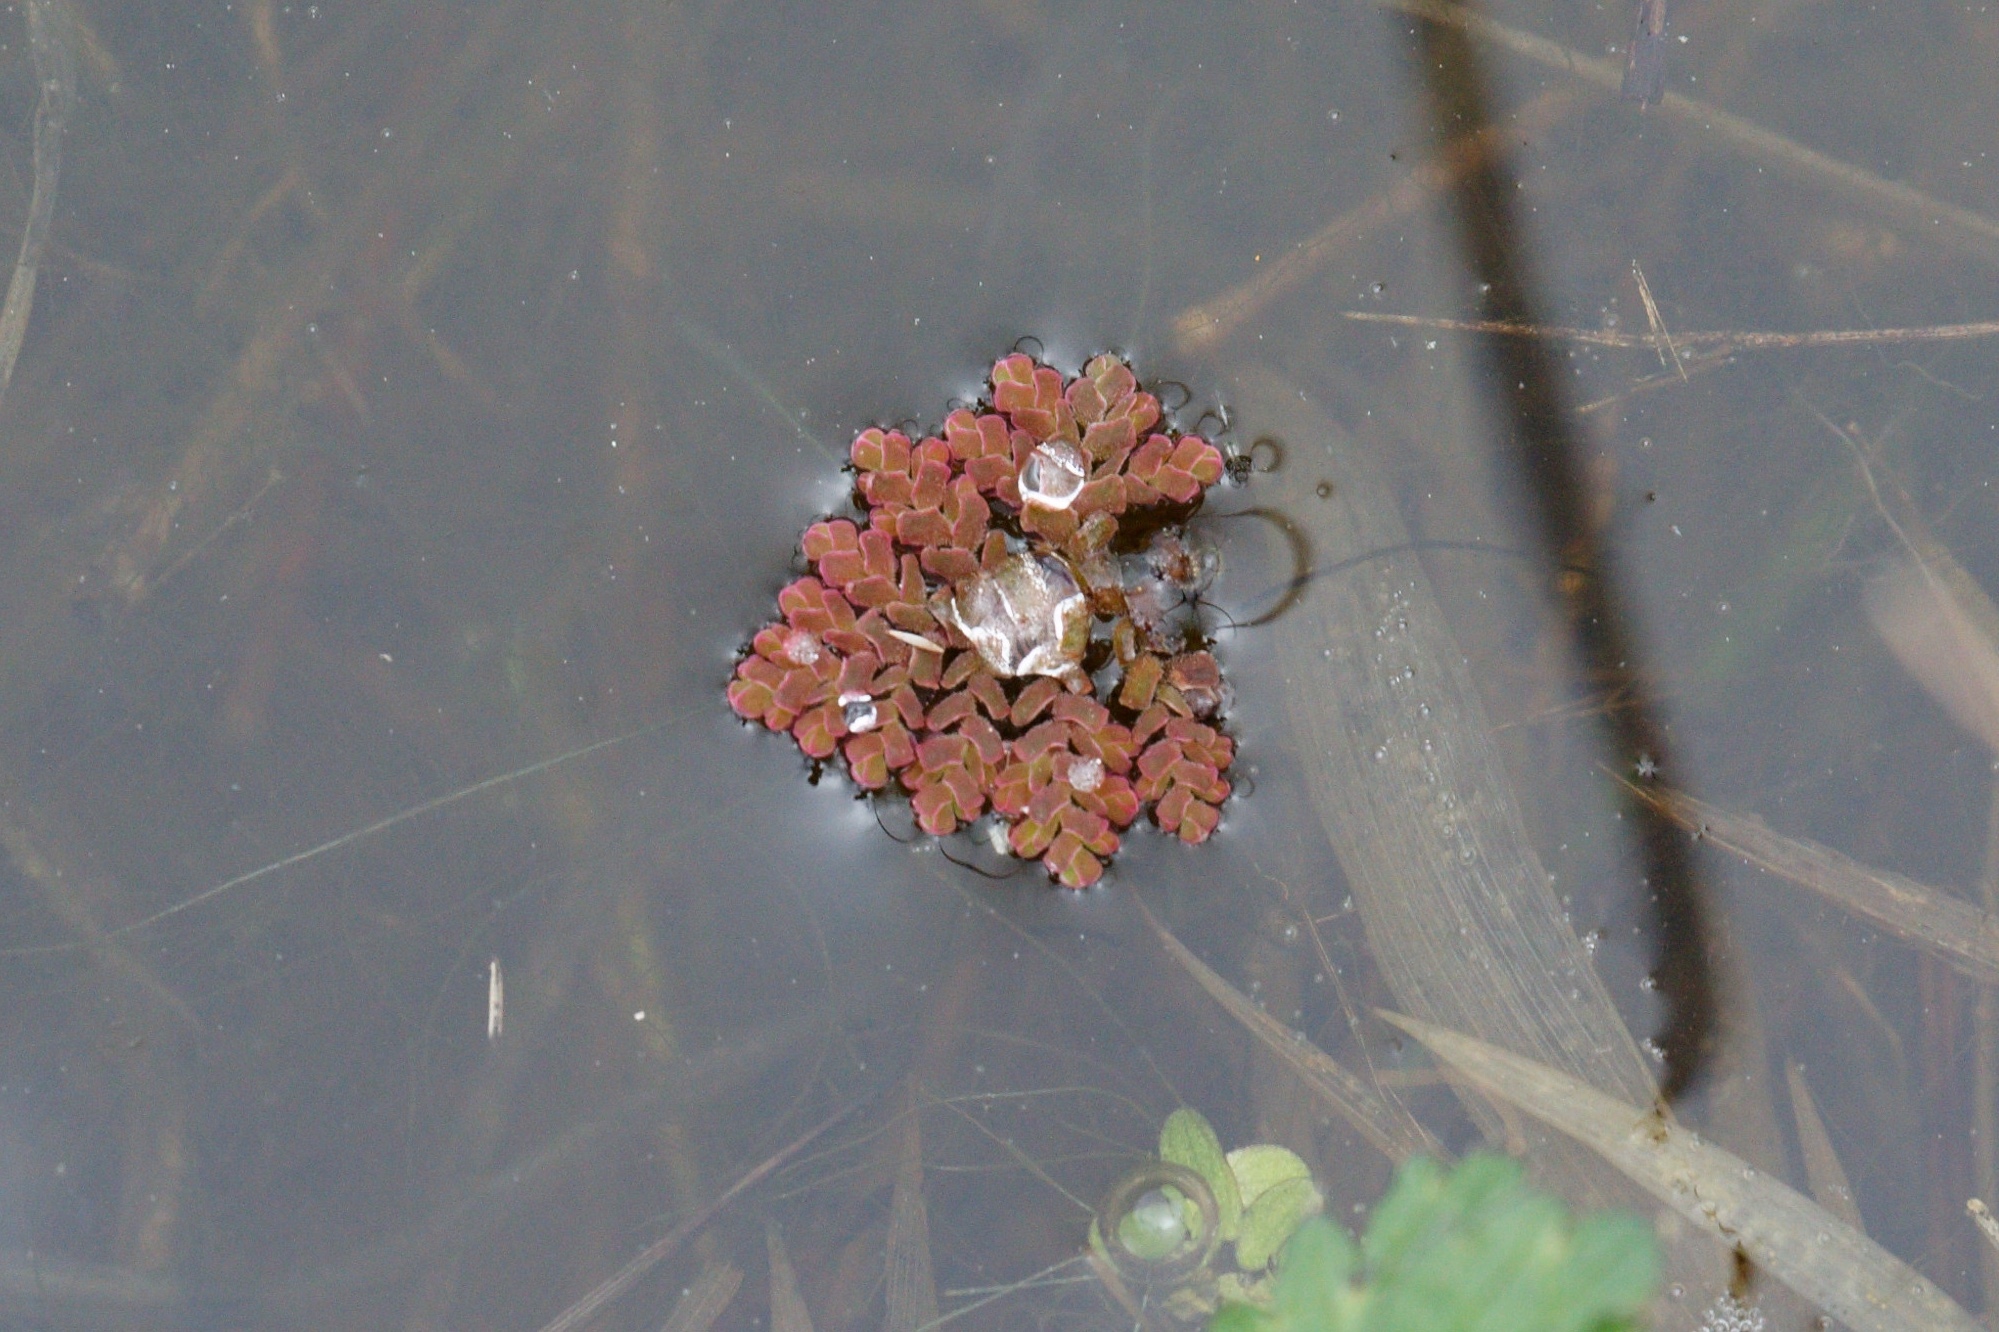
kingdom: Plantae
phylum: Tracheophyta
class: Polypodiopsida
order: Salviniales
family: Salviniaceae
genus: Azolla
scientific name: Azolla pinnata
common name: Ferny azolla
